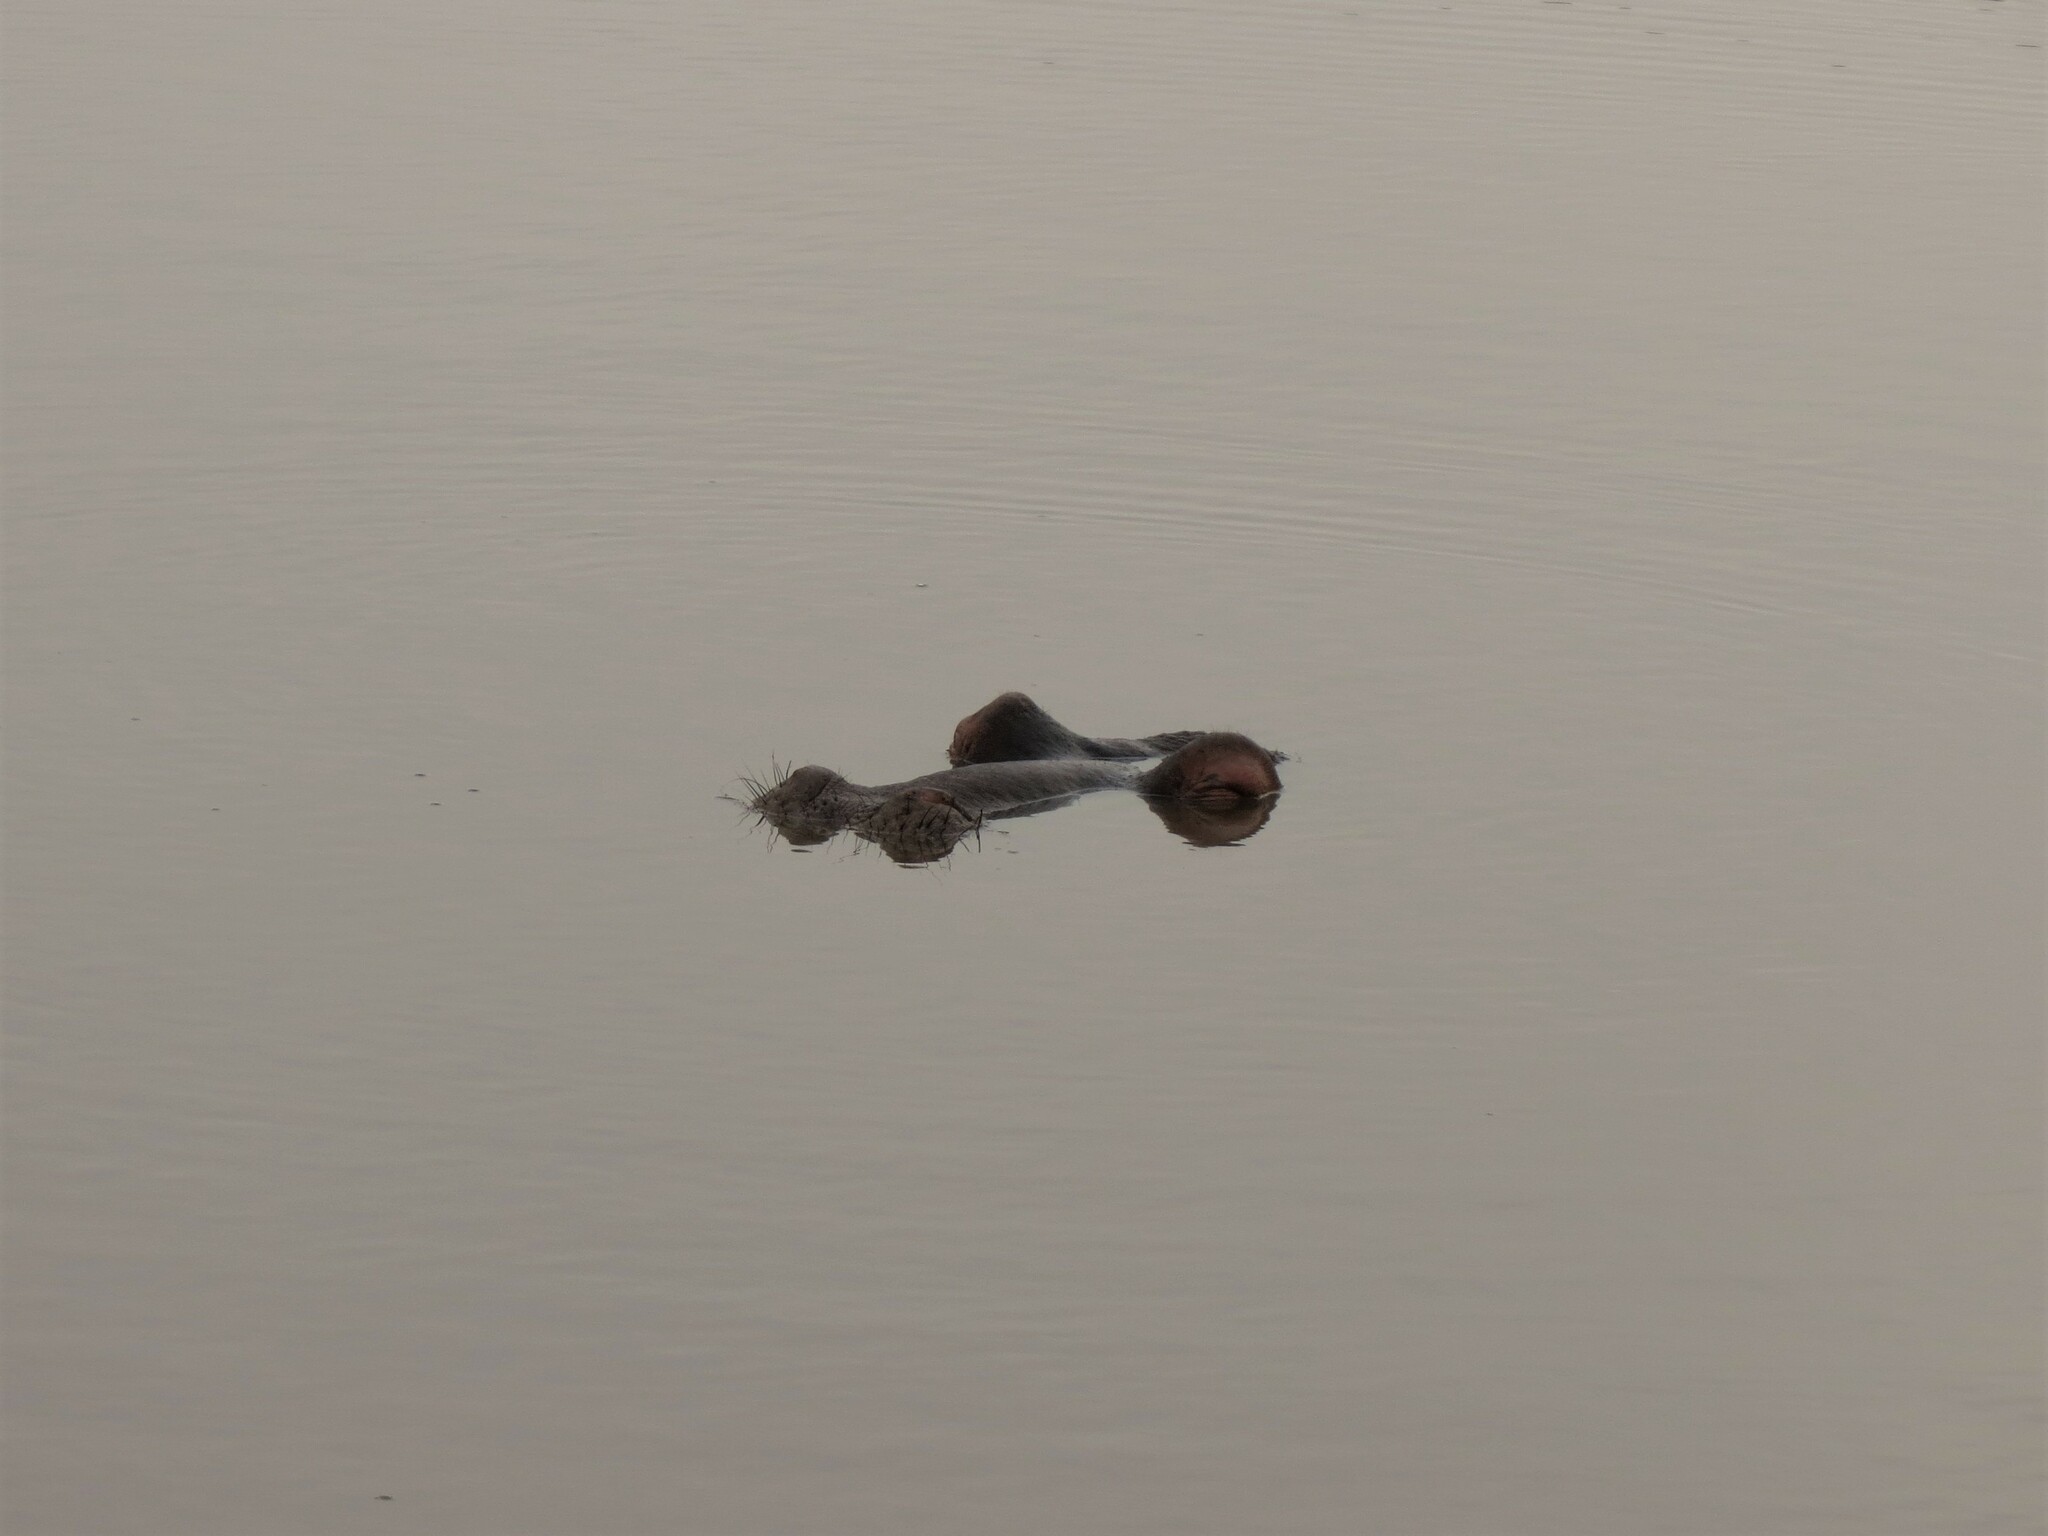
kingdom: Animalia
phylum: Chordata
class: Mammalia
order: Artiodactyla
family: Hippopotamidae
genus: Hippopotamus
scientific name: Hippopotamus amphibius
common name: Common hippopotamus
